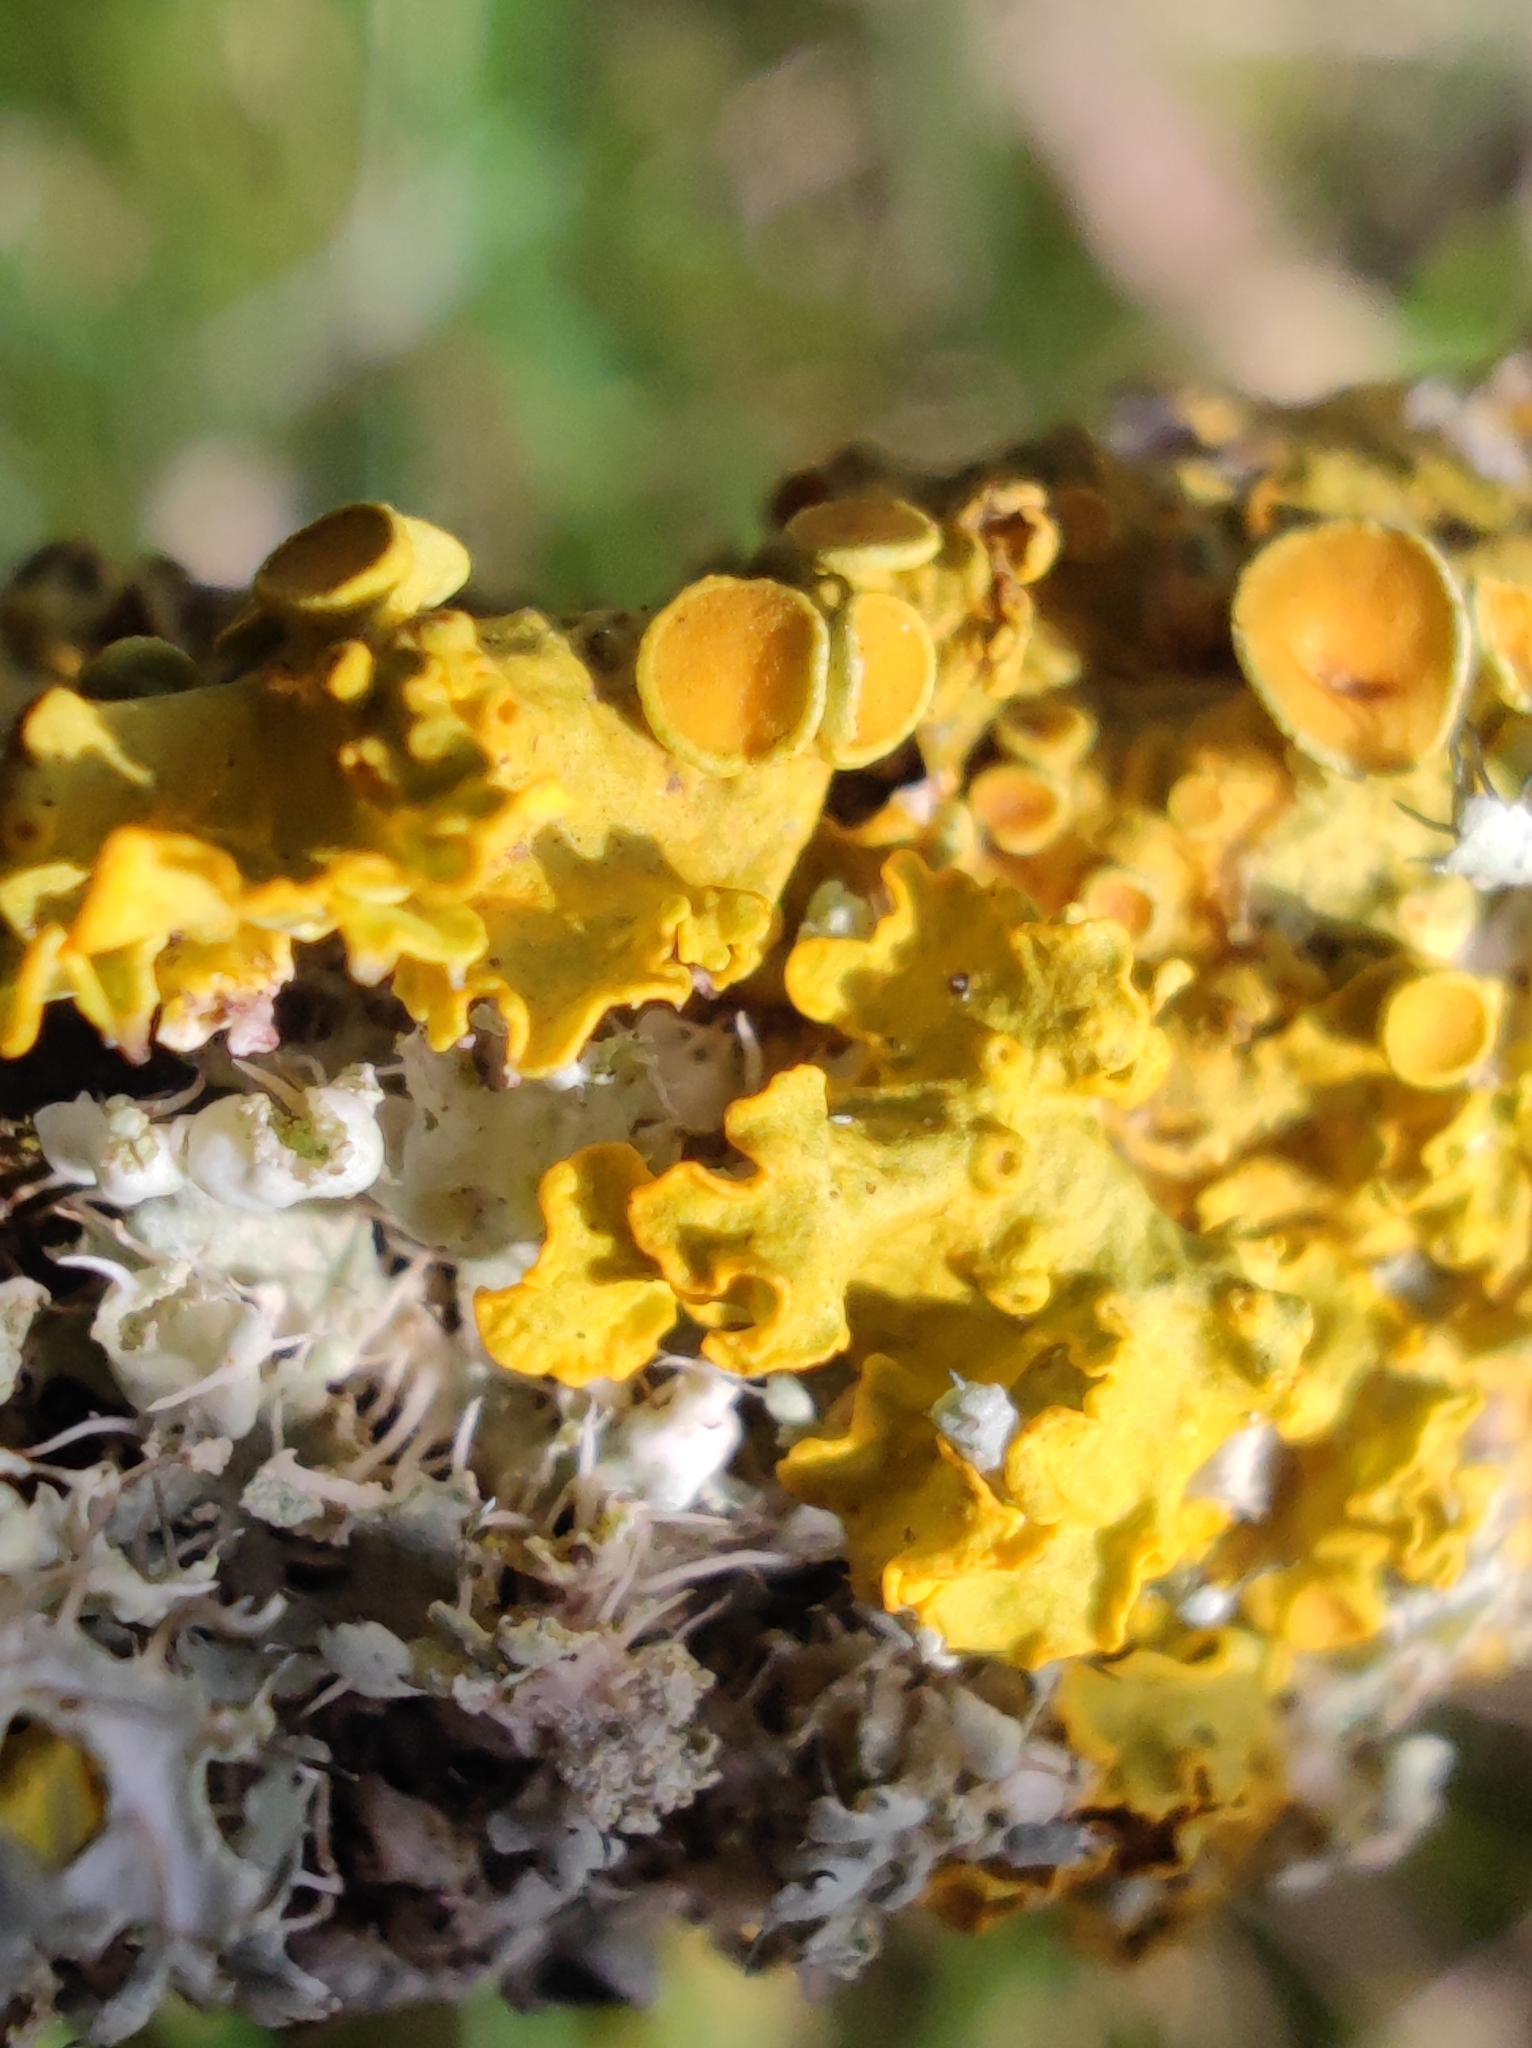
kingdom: Fungi
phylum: Ascomycota
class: Lecanoromycetes
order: Teloschistales
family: Teloschistaceae
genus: Xanthoria
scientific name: Xanthoria parietina
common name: Common orange lichen
